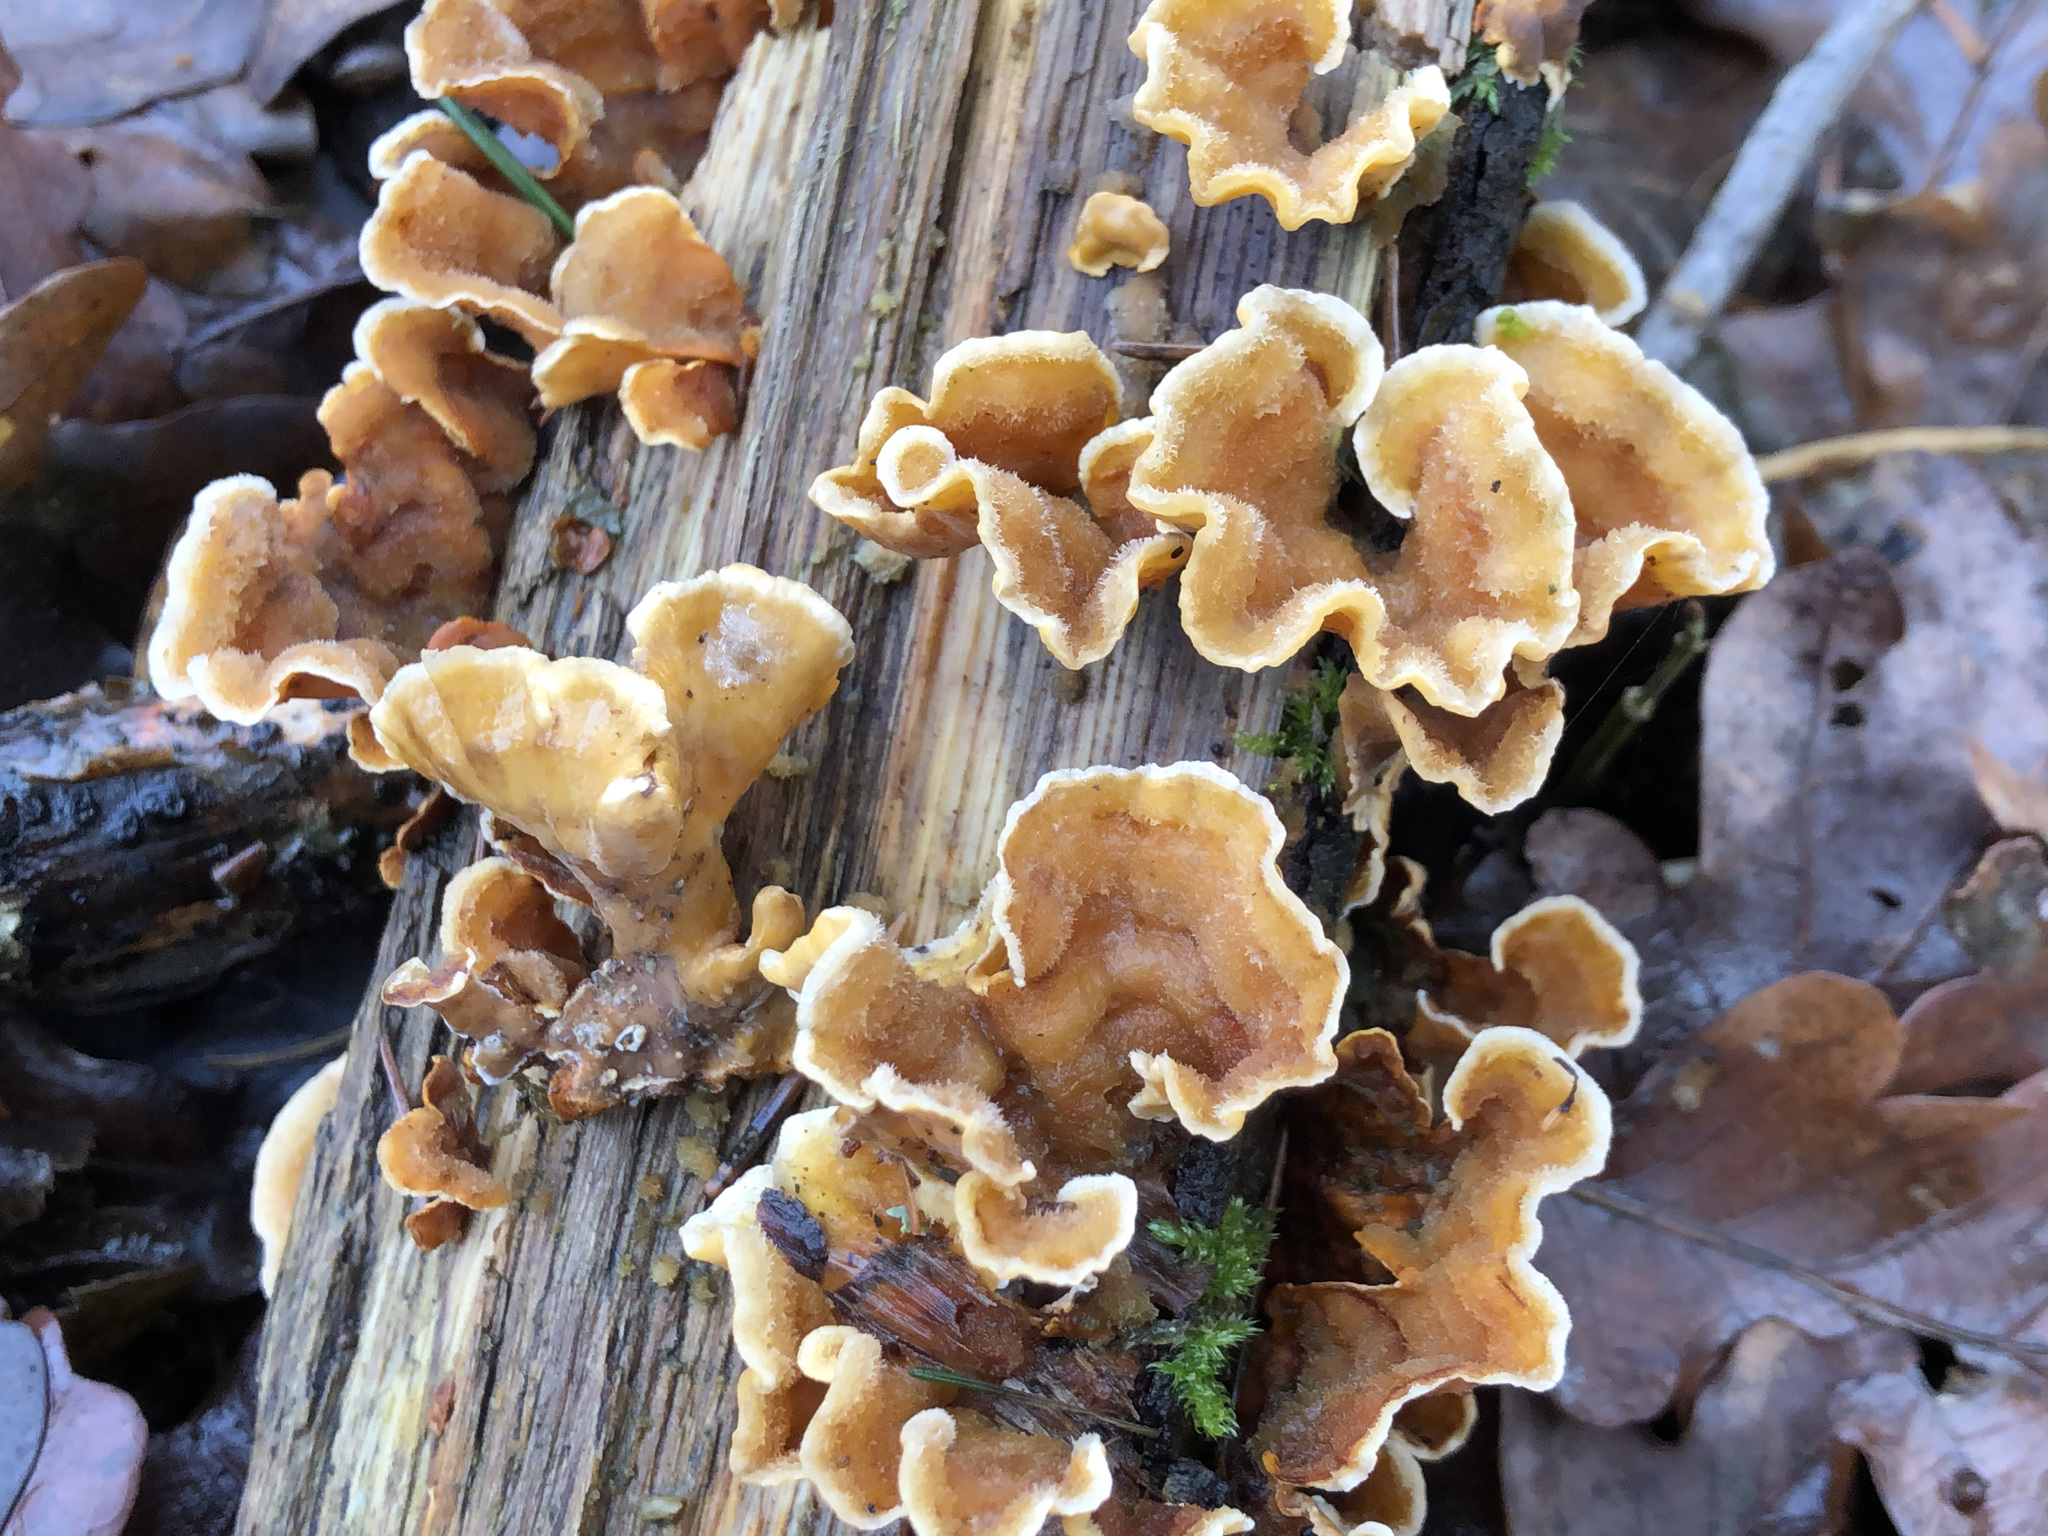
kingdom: Fungi
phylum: Basidiomycota
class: Agaricomycetes
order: Russulales
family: Stereaceae
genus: Stereum
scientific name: Stereum hirsutum
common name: Hairy curtain crust
